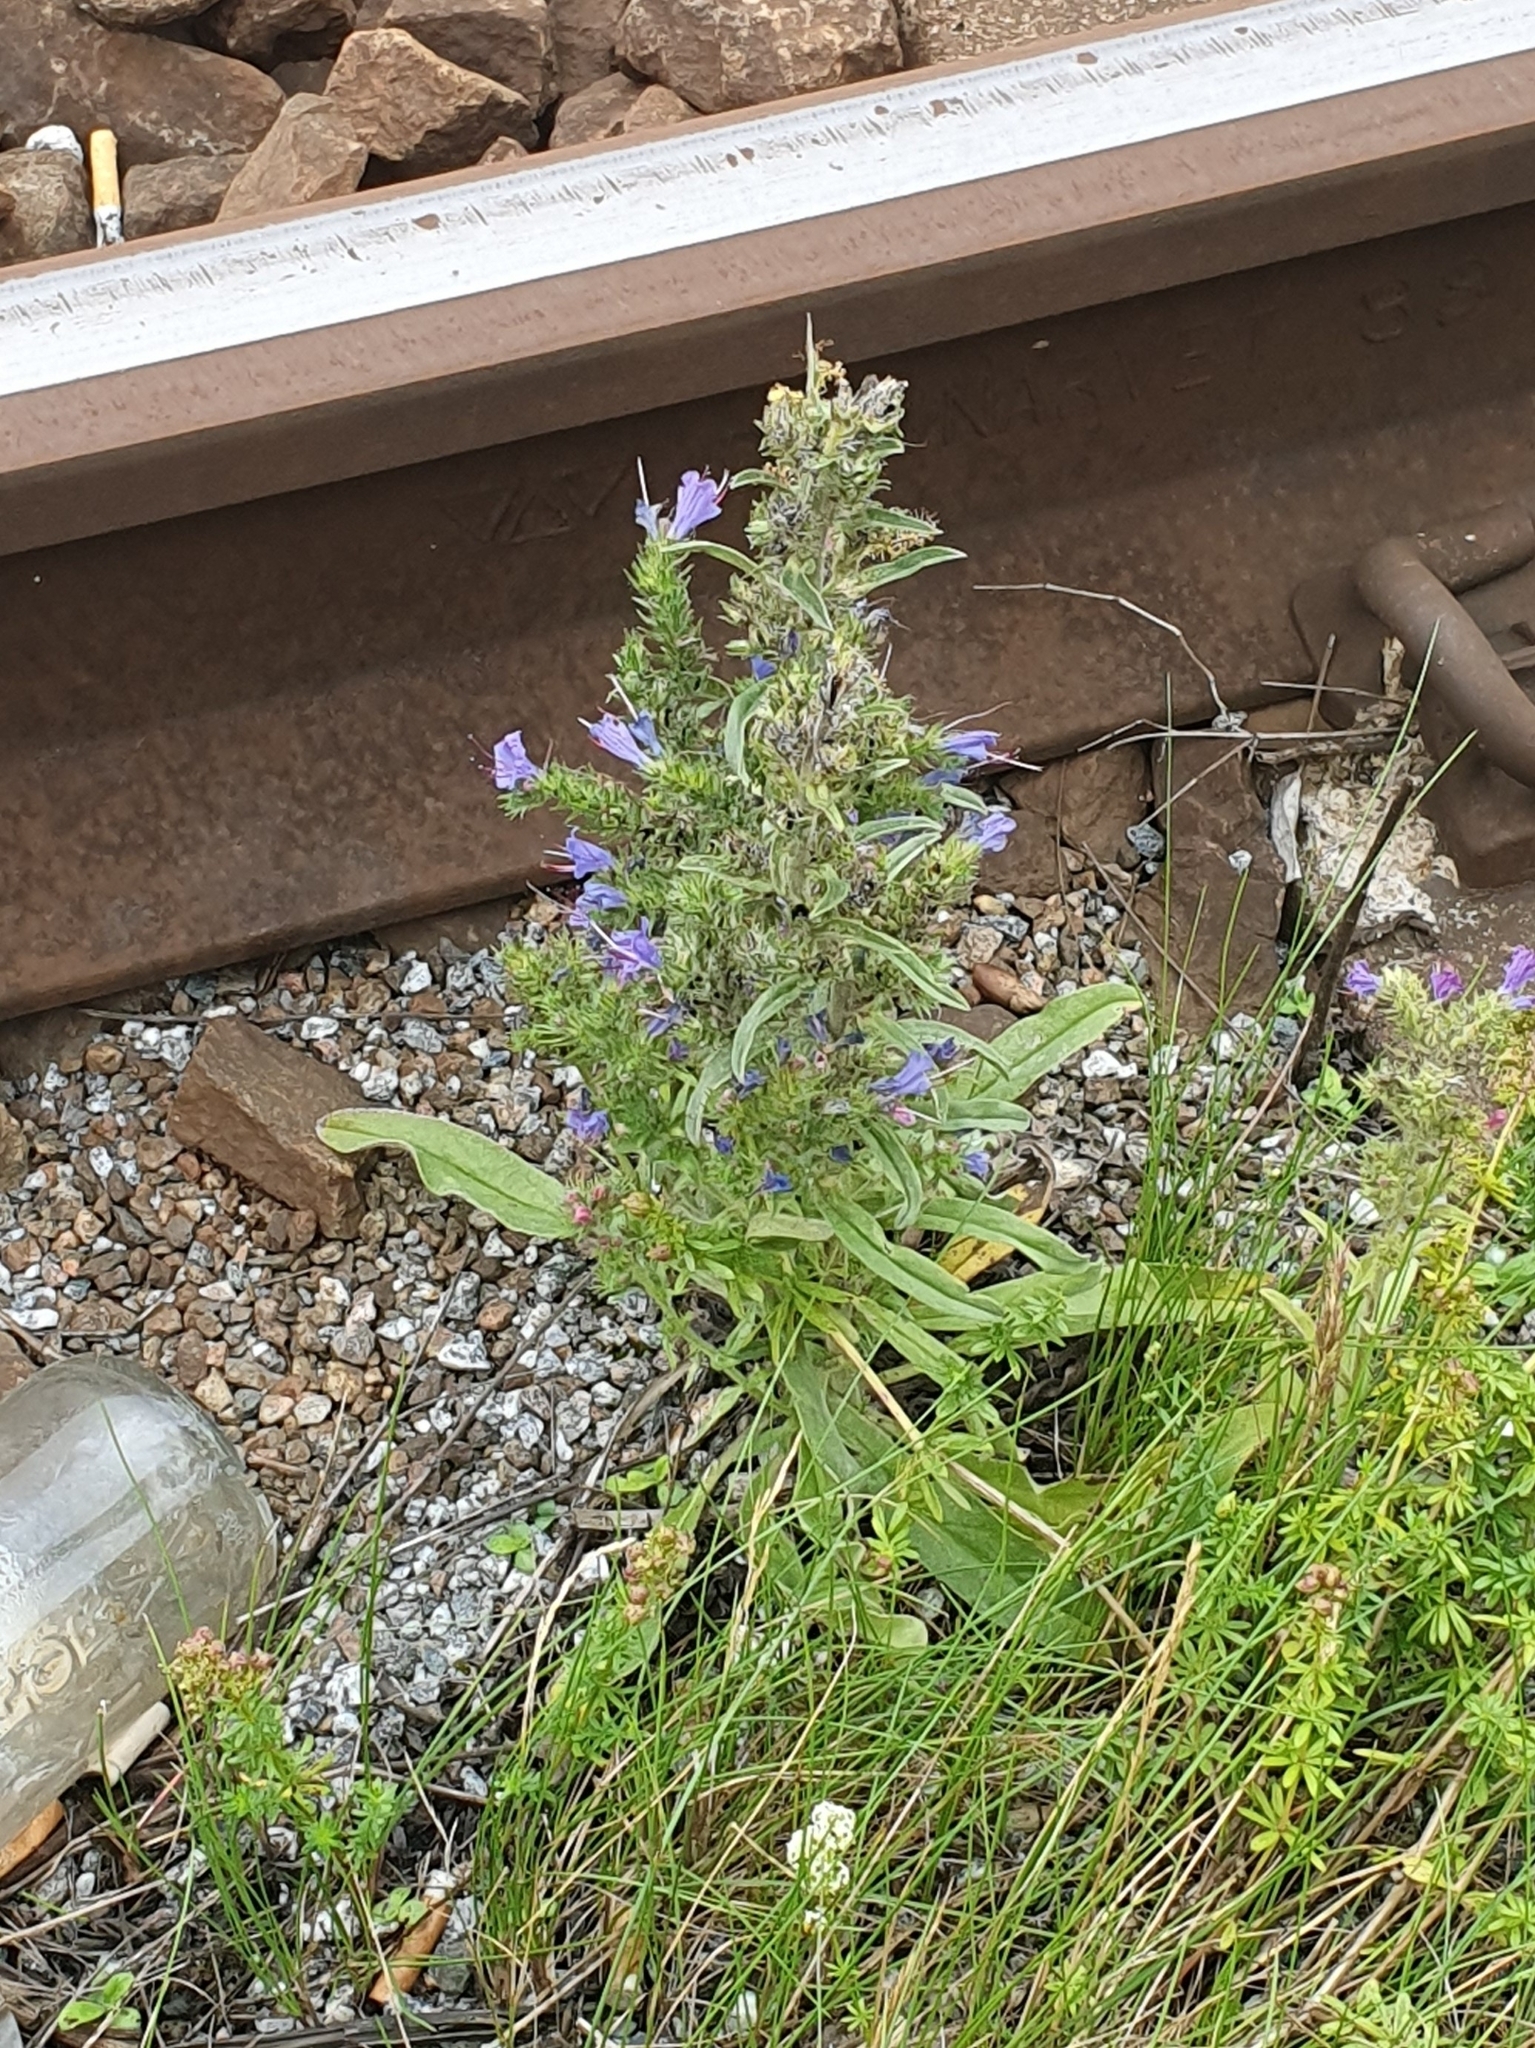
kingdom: Plantae
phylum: Tracheophyta
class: Magnoliopsida
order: Boraginales
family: Boraginaceae
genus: Echium
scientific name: Echium vulgare
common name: Common viper's bugloss
